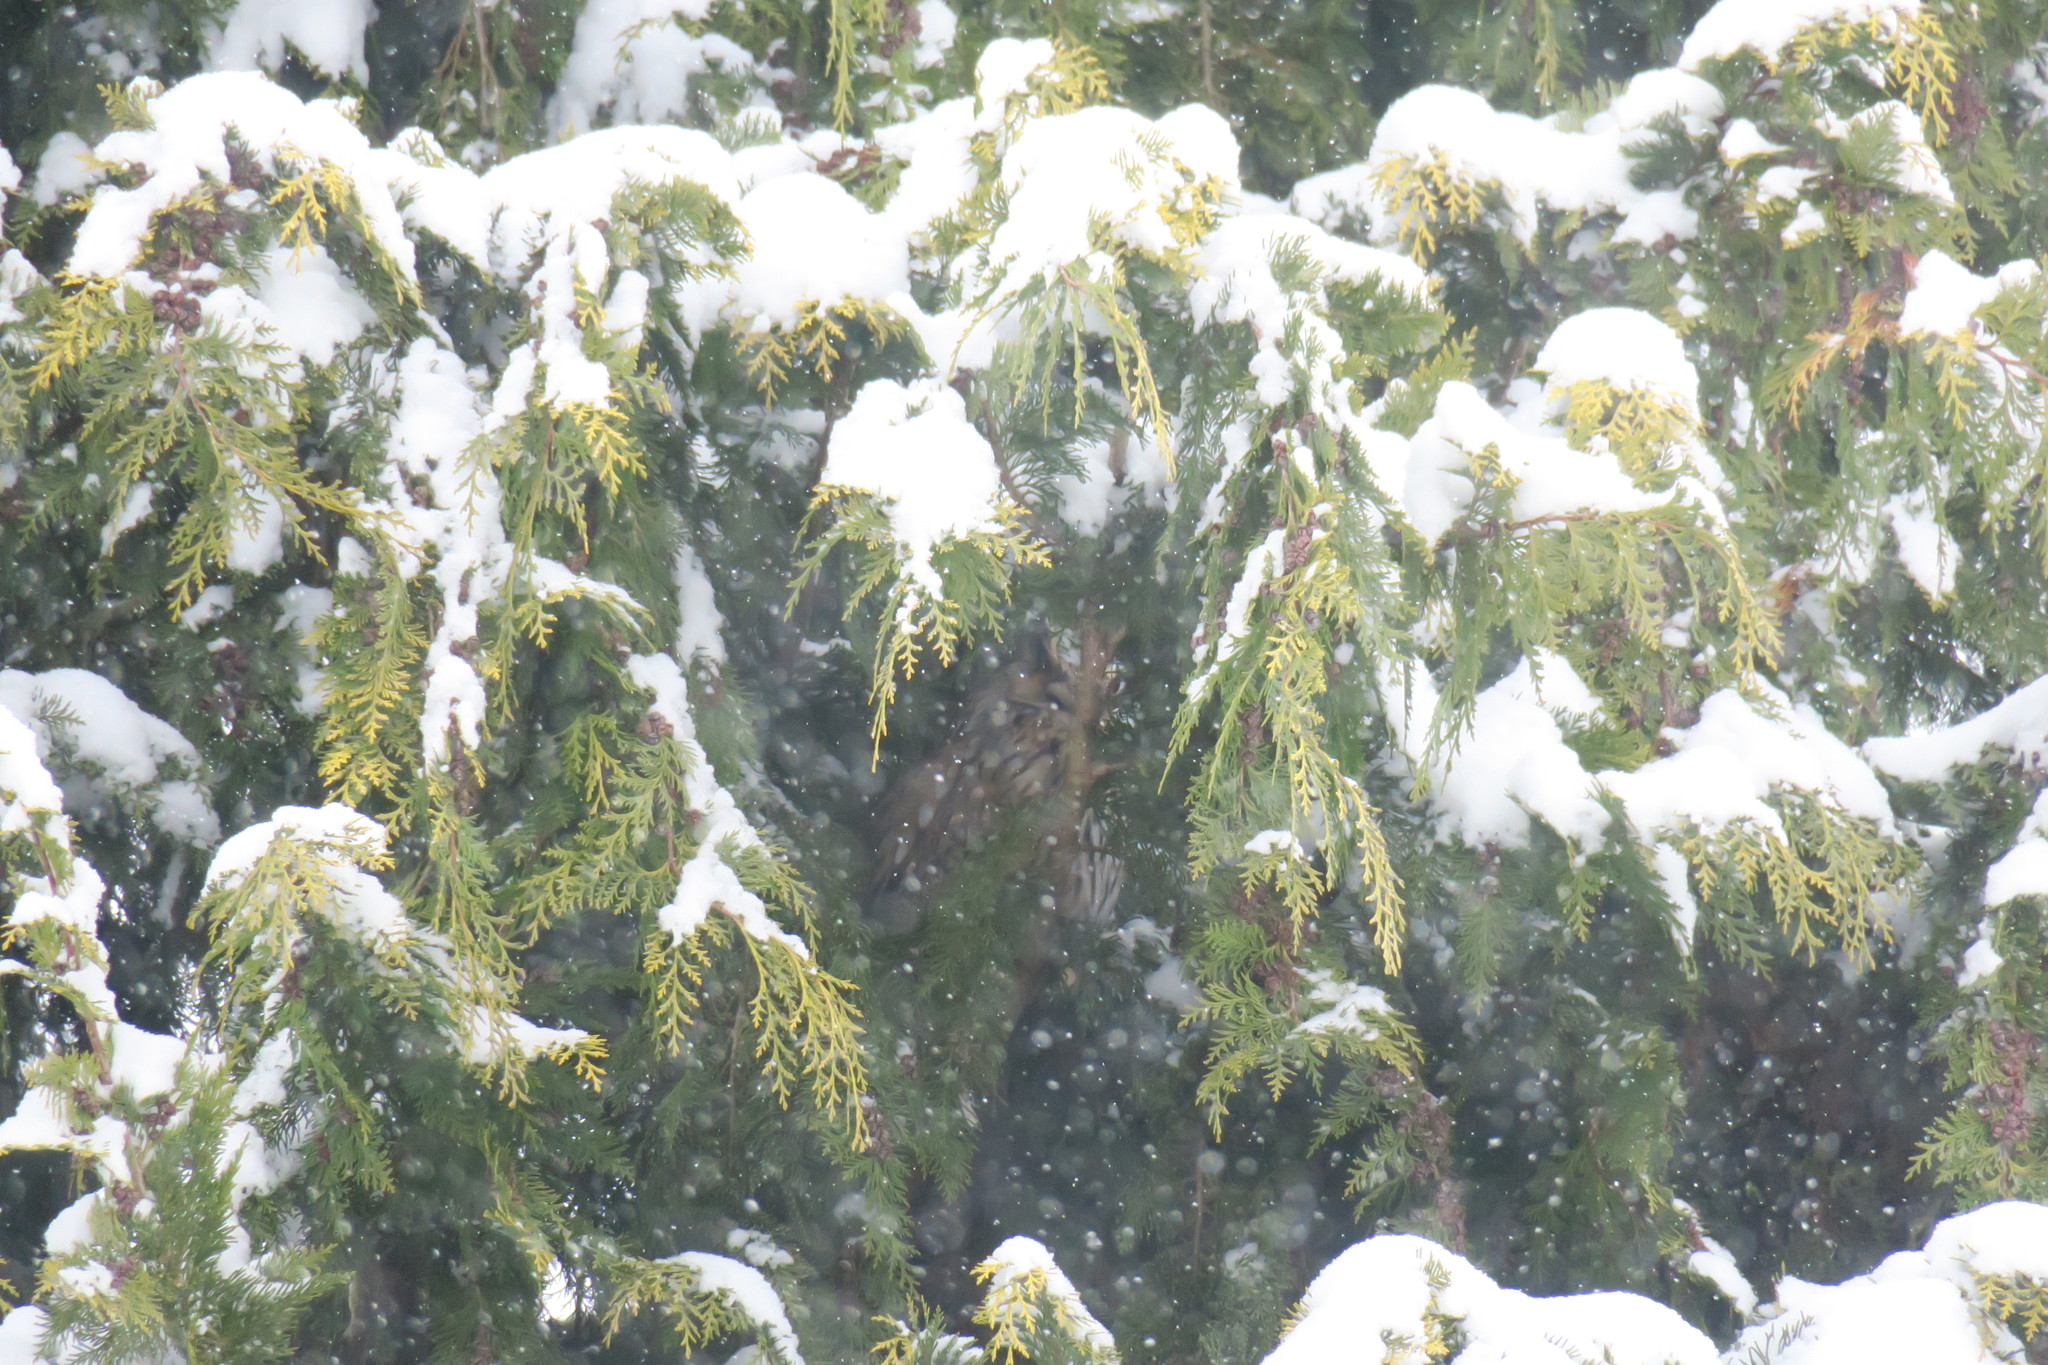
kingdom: Animalia
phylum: Chordata
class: Aves
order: Strigiformes
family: Strigidae
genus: Asio
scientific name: Asio otus
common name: Long-eared owl
